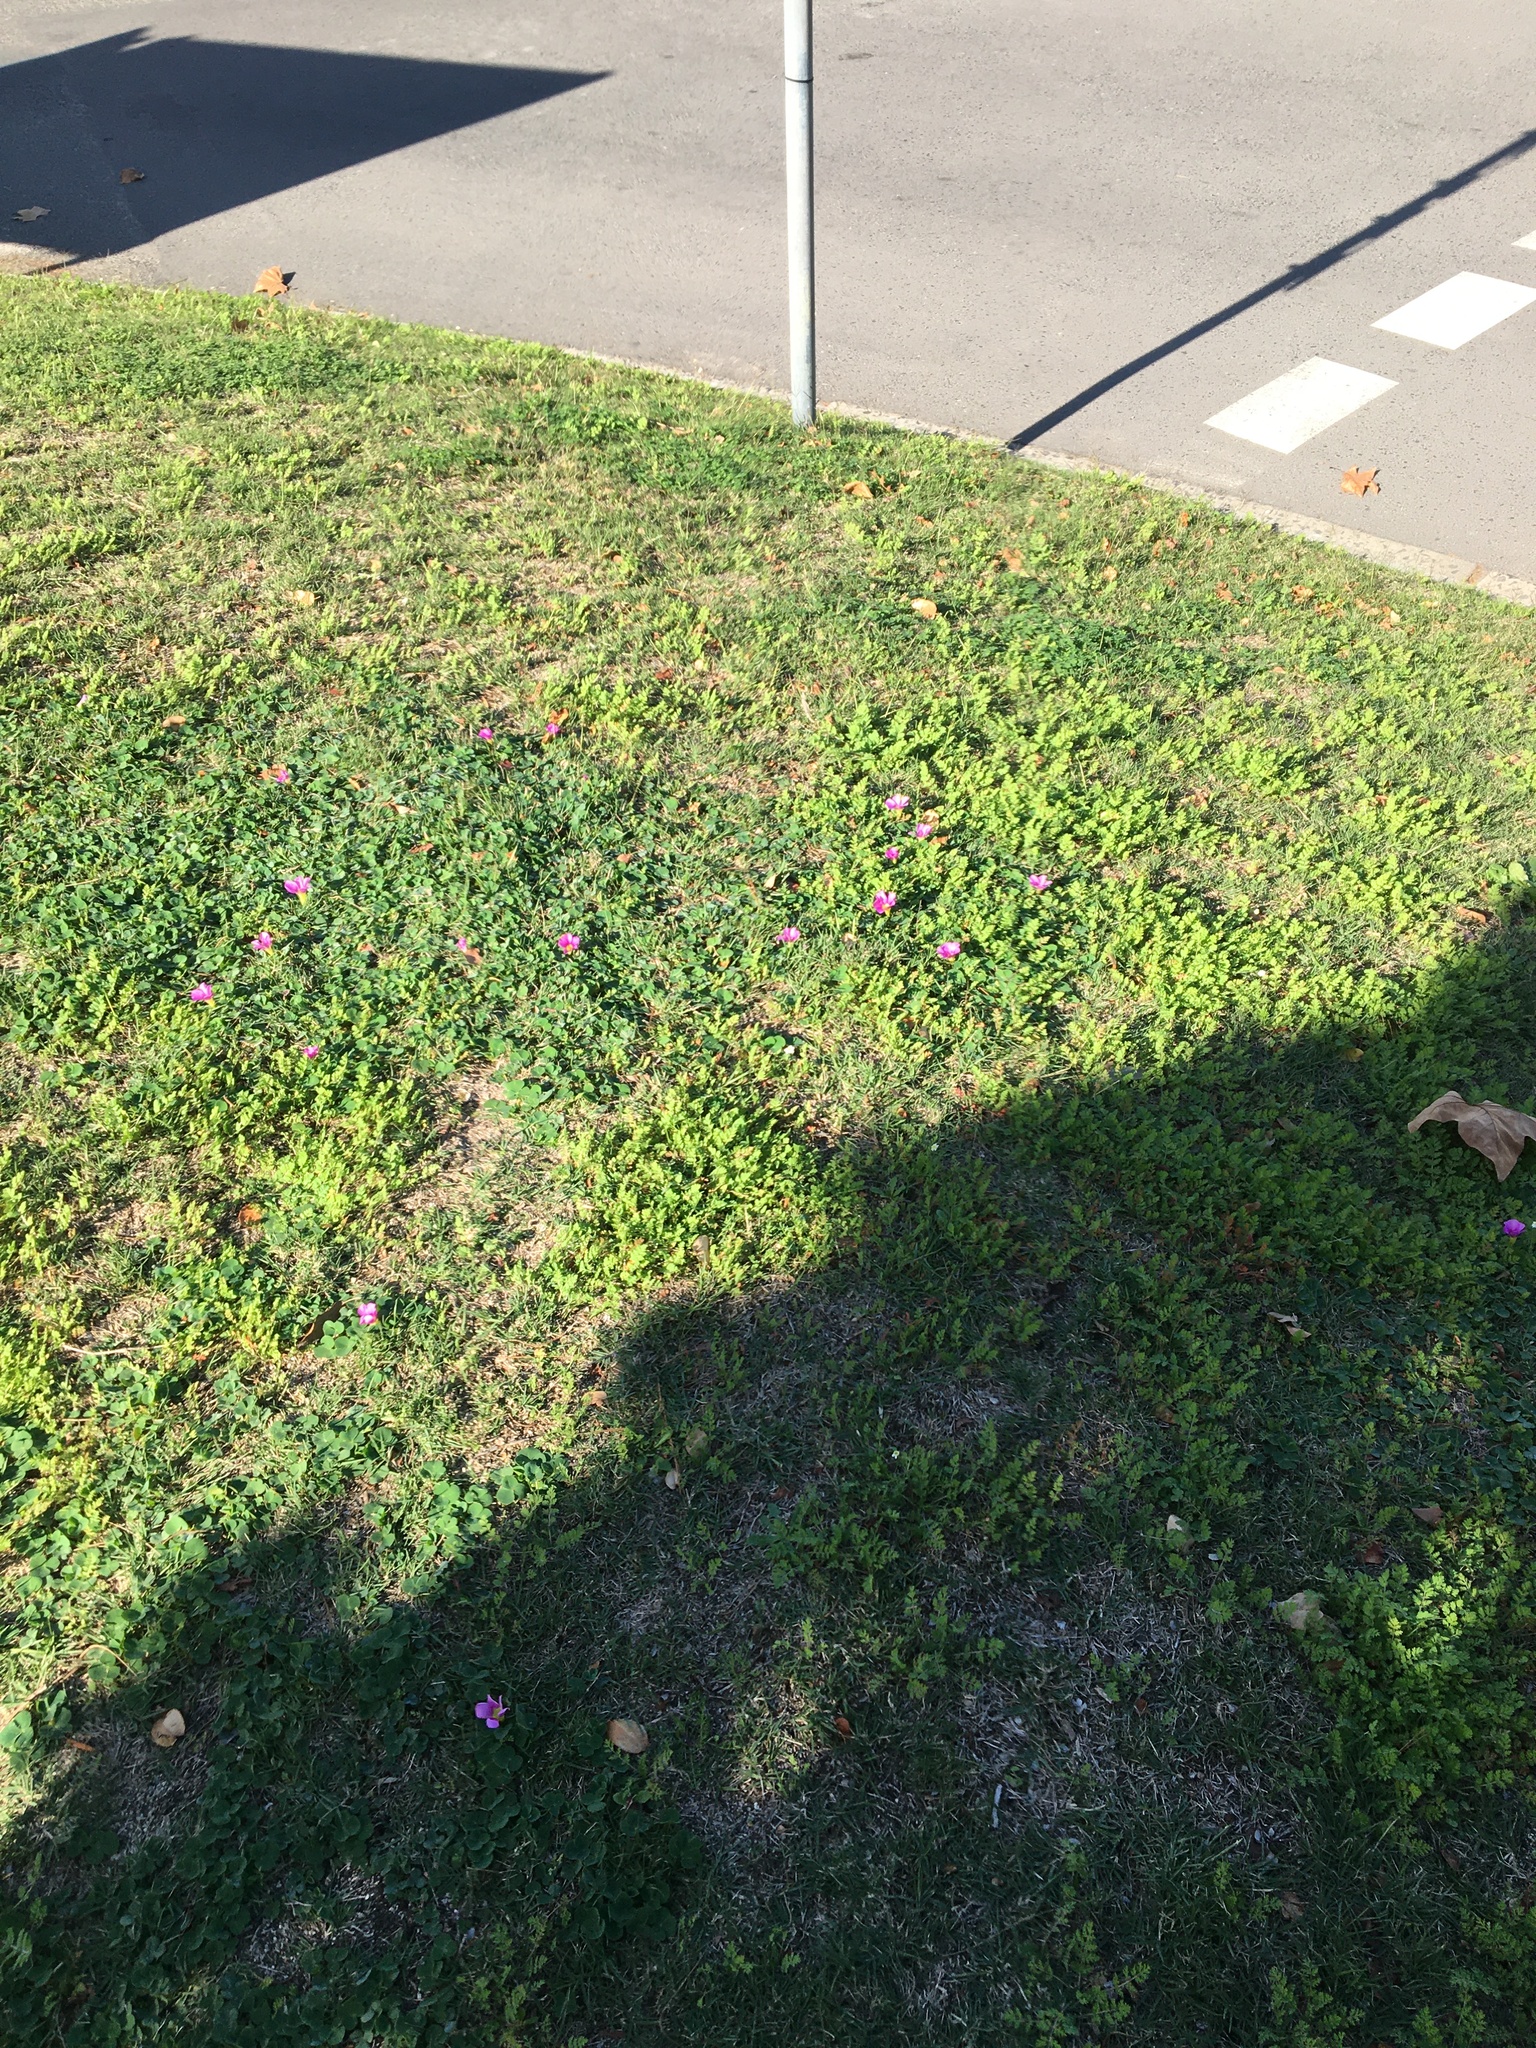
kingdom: Plantae
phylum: Tracheophyta
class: Magnoliopsida
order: Oxalidales
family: Oxalidaceae
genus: Oxalis
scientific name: Oxalis purpurea
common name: Purple woodsorrel
